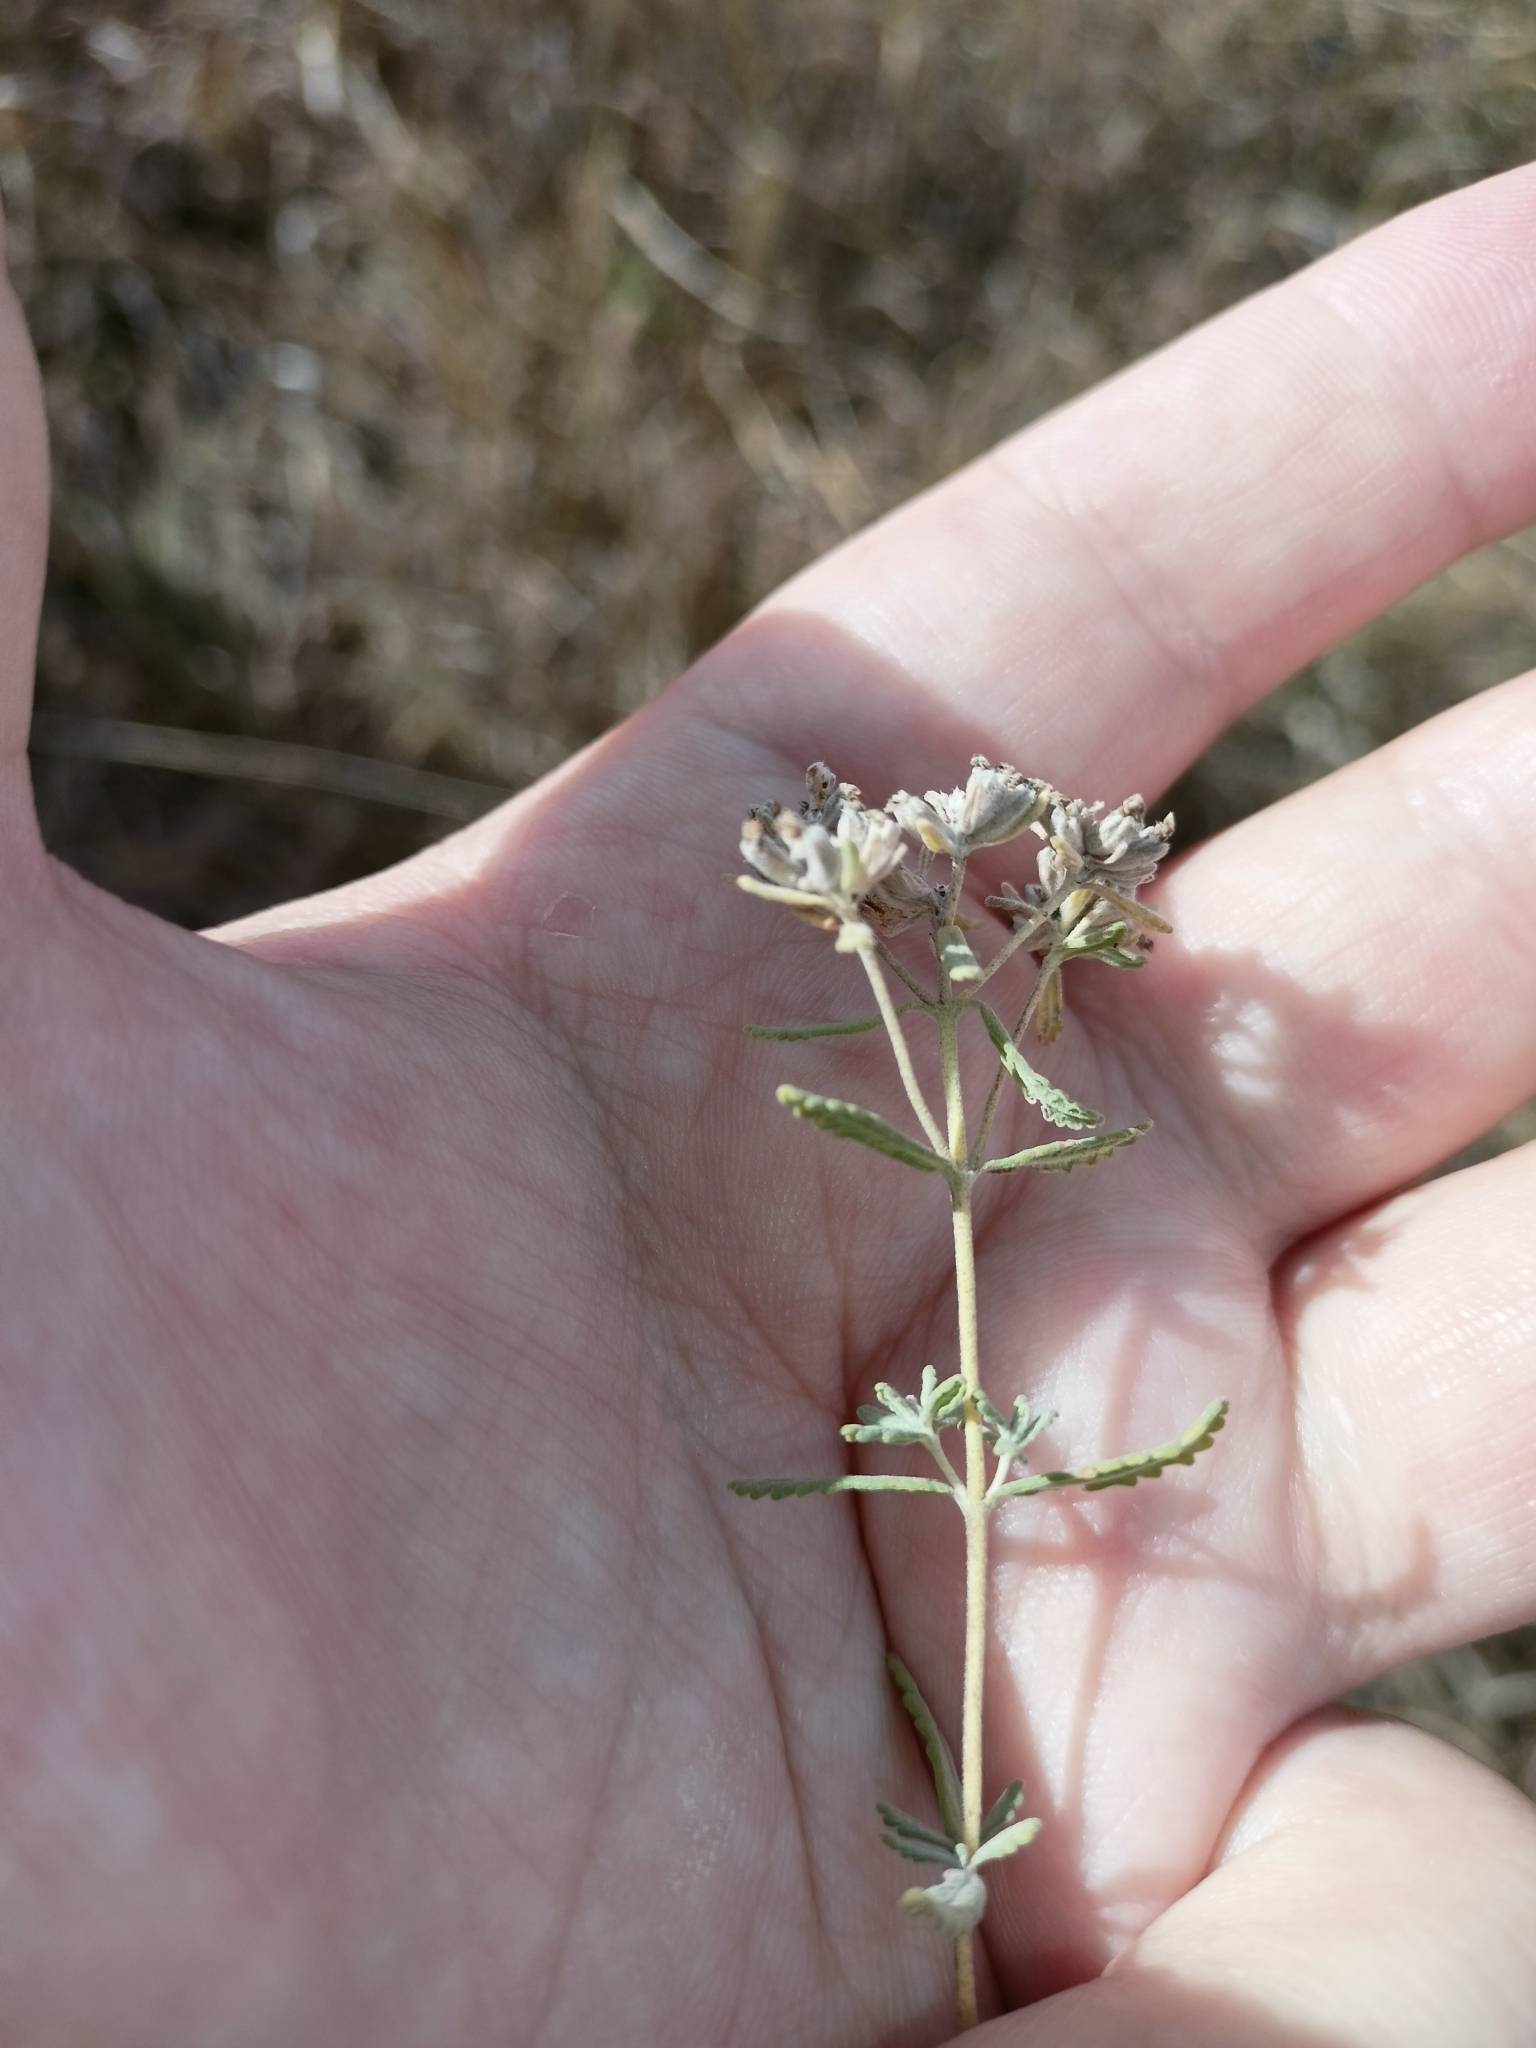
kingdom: Plantae
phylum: Tracheophyta
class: Magnoliopsida
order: Lamiales
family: Lamiaceae
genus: Teucrium
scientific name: Teucrium polium
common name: Poley
